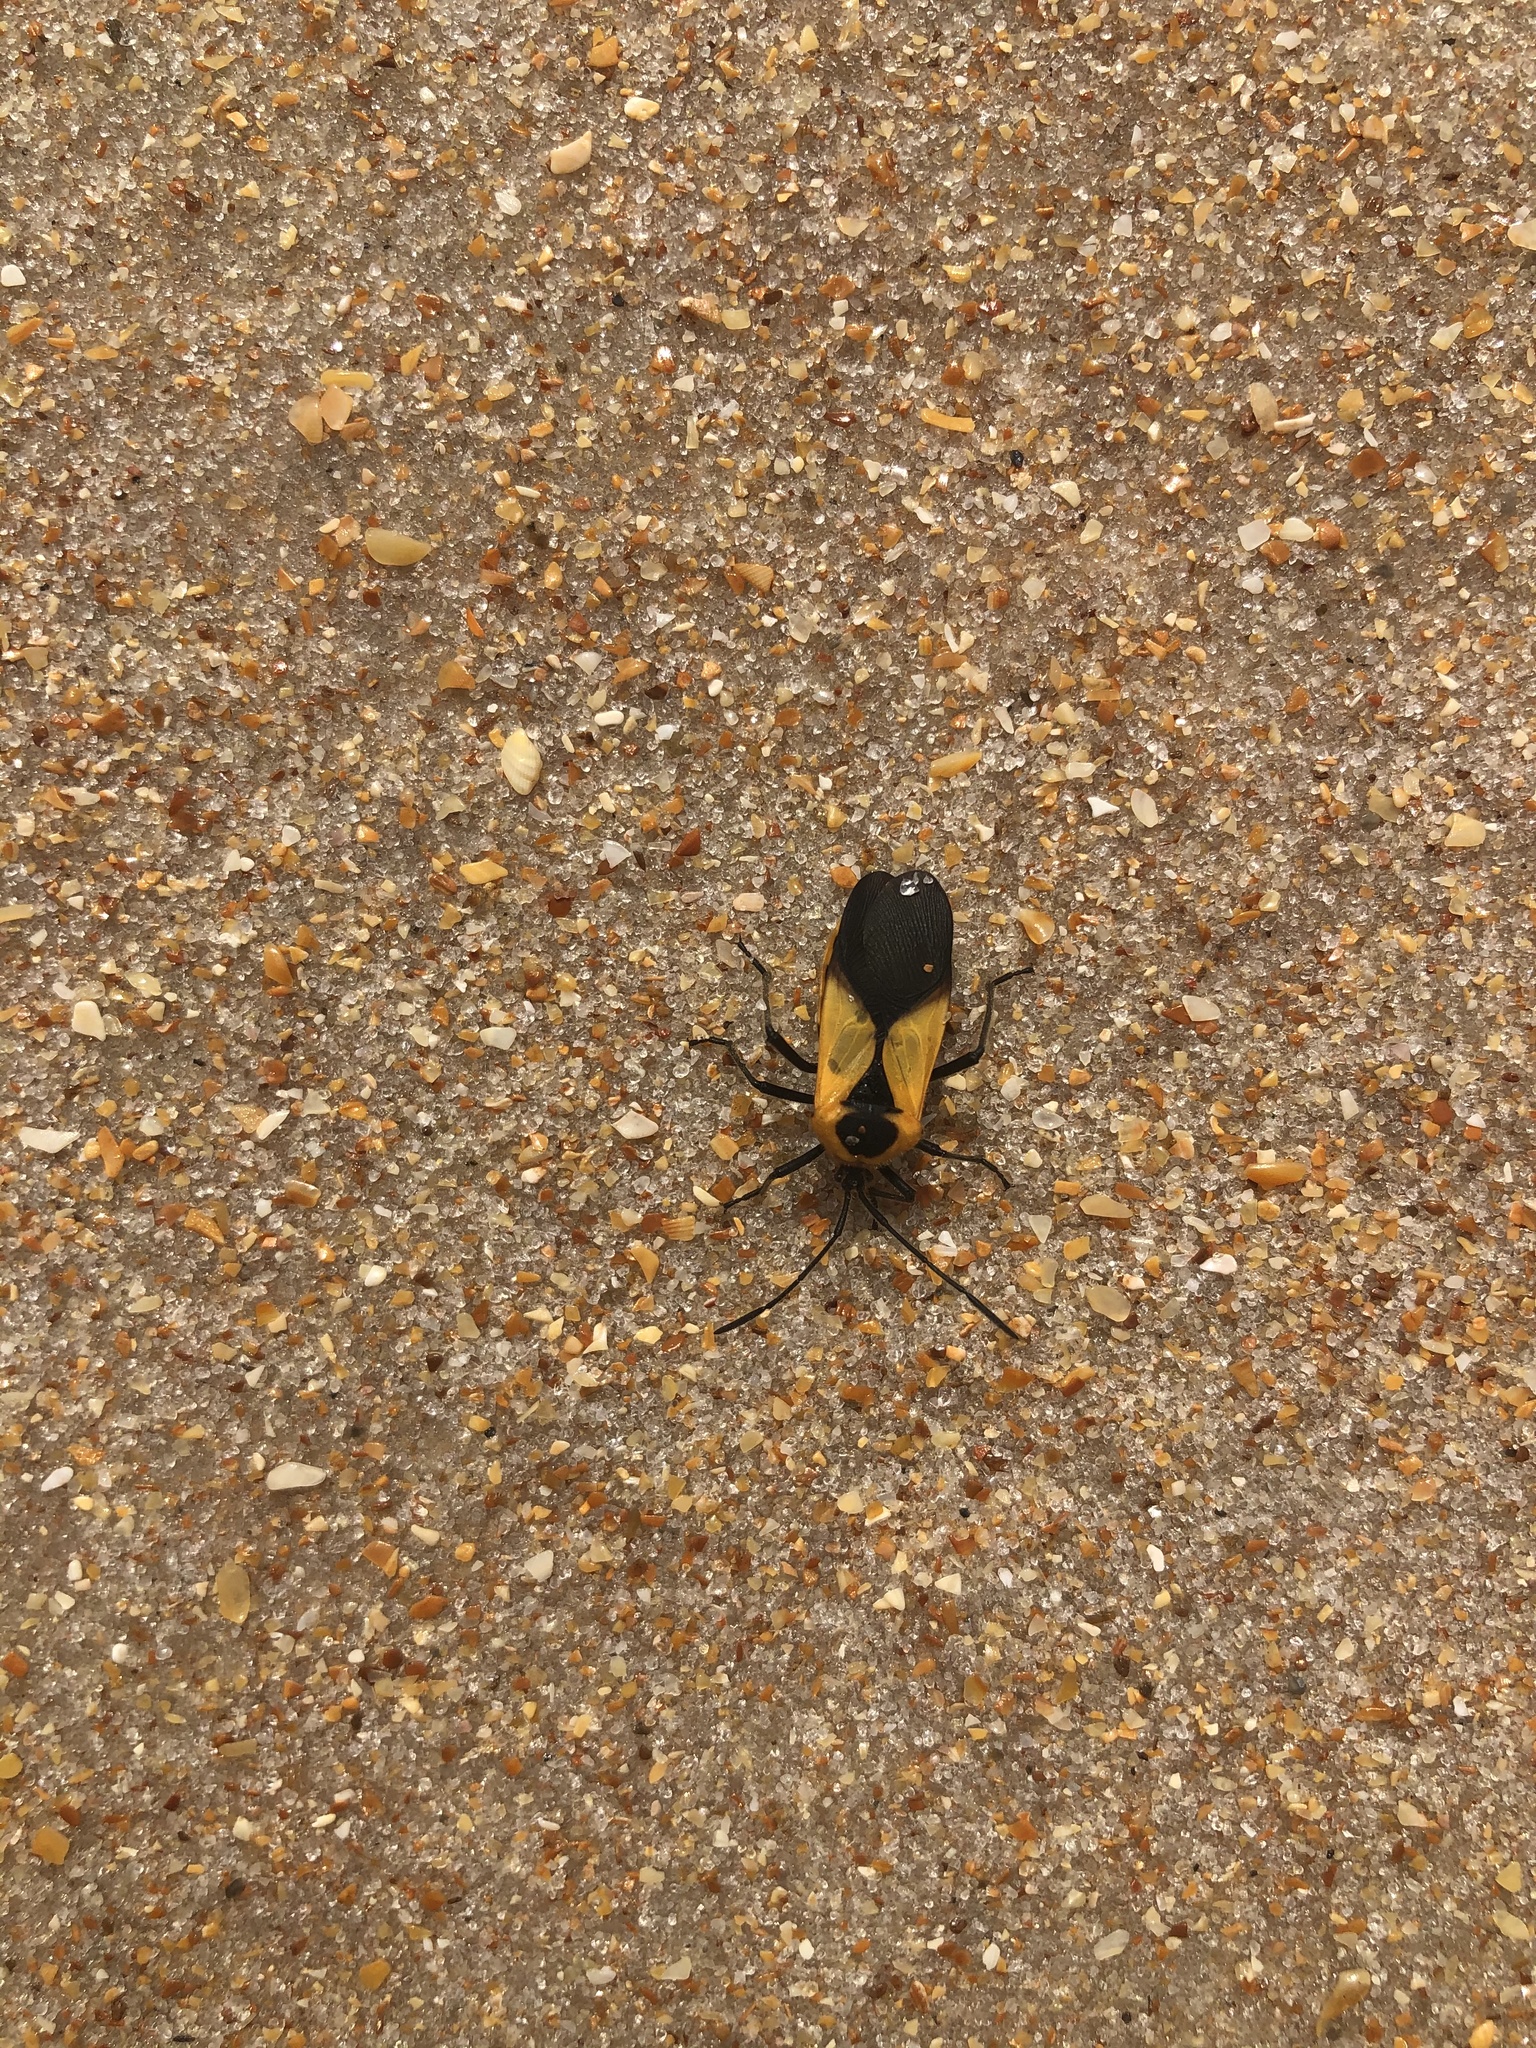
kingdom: Animalia
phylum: Arthropoda
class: Insecta
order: Hemiptera
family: Coreidae
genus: Sephina
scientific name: Sephina gundlachii
